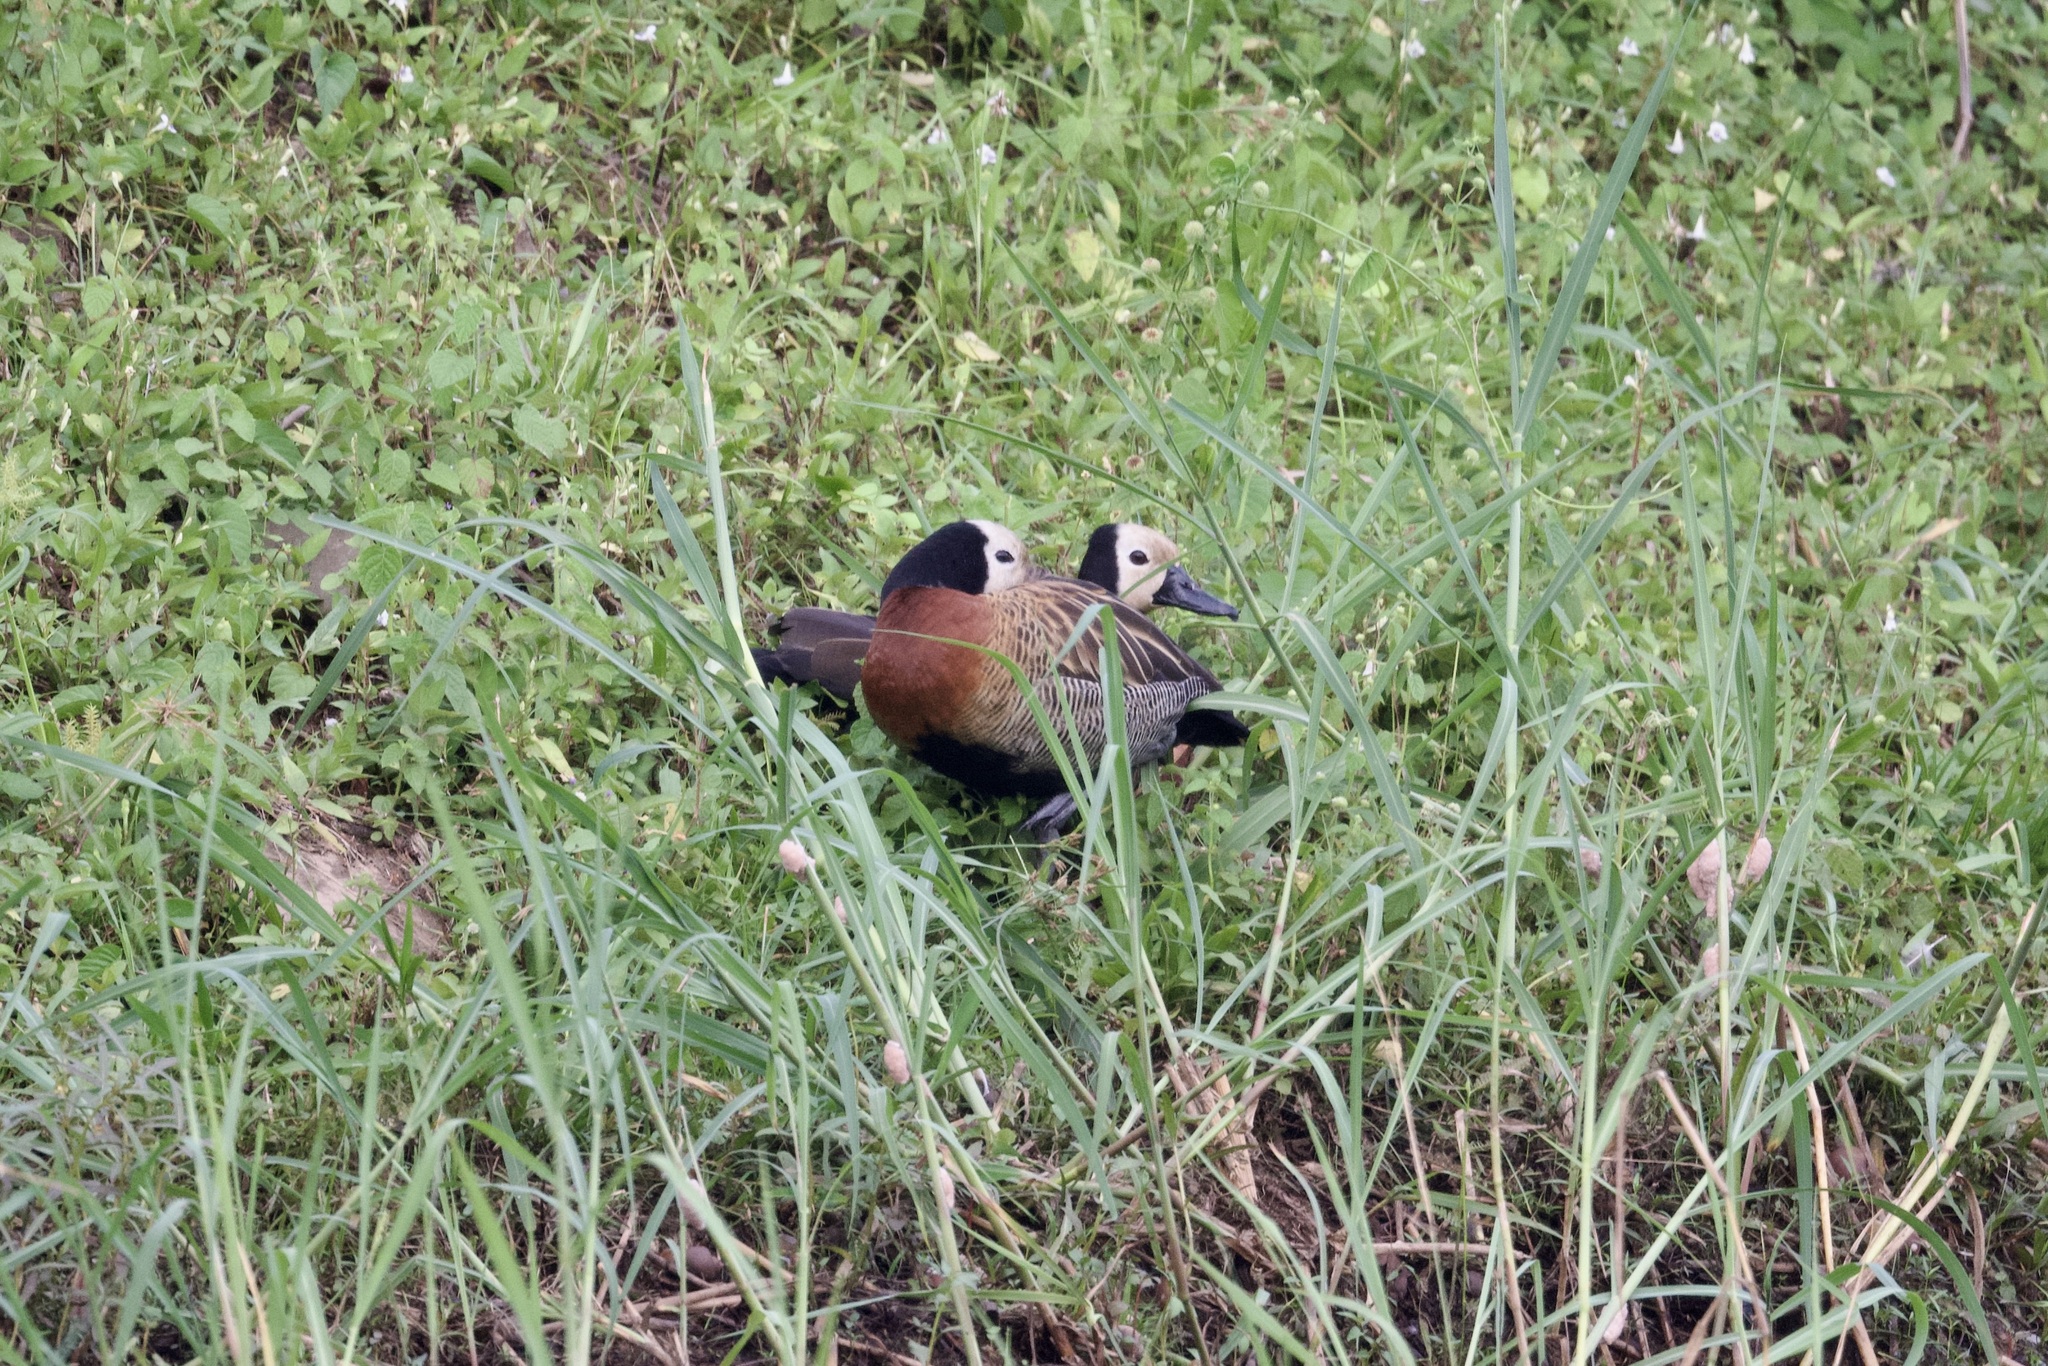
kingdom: Animalia
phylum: Chordata
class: Aves
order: Anseriformes
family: Anatidae
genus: Dendrocygna
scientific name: Dendrocygna viduata
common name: White-faced whistling duck
